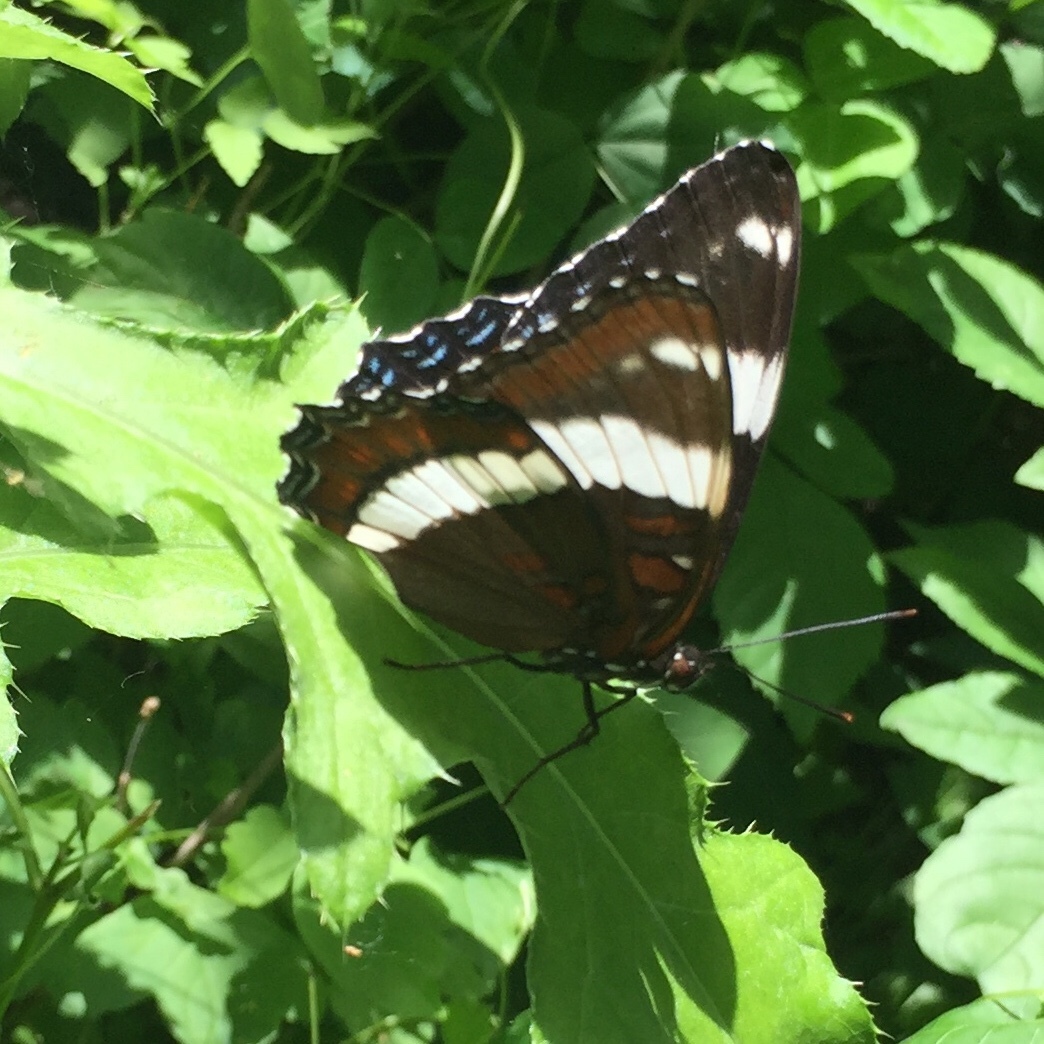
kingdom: Animalia
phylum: Arthropoda
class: Insecta
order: Lepidoptera
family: Nymphalidae
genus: Limenitis
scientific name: Limenitis arthemis
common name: Red-spotted admiral
